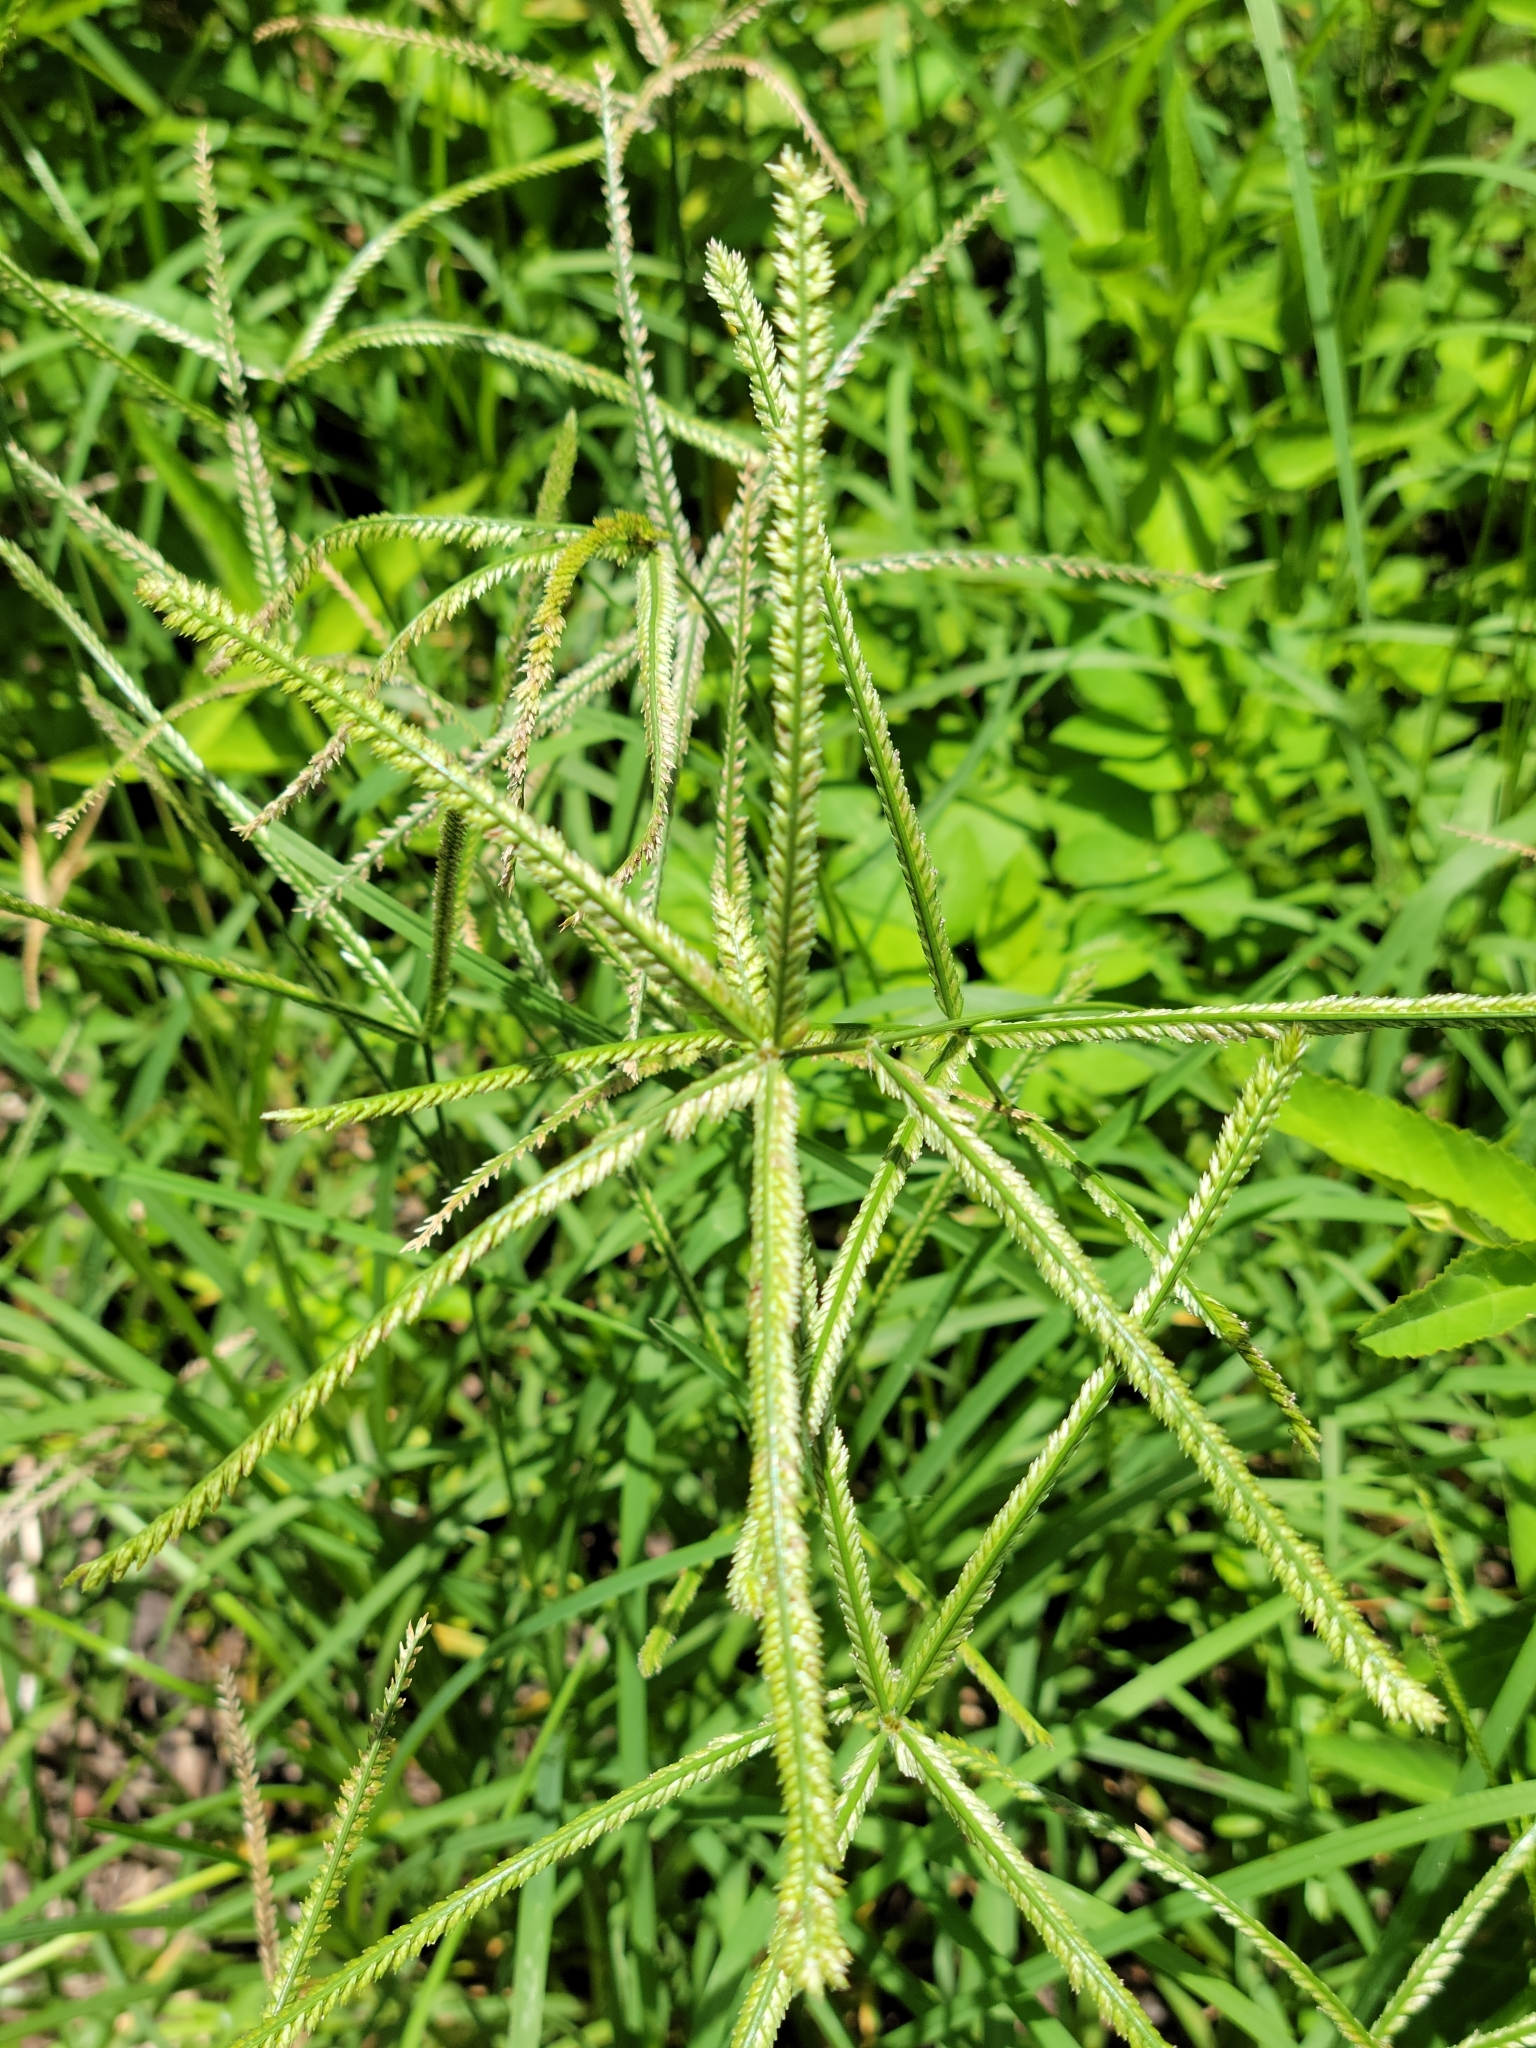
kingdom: Plantae
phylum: Tracheophyta
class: Liliopsida
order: Poales
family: Poaceae
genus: Eleusine
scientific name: Eleusine indica
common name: Yard-grass
